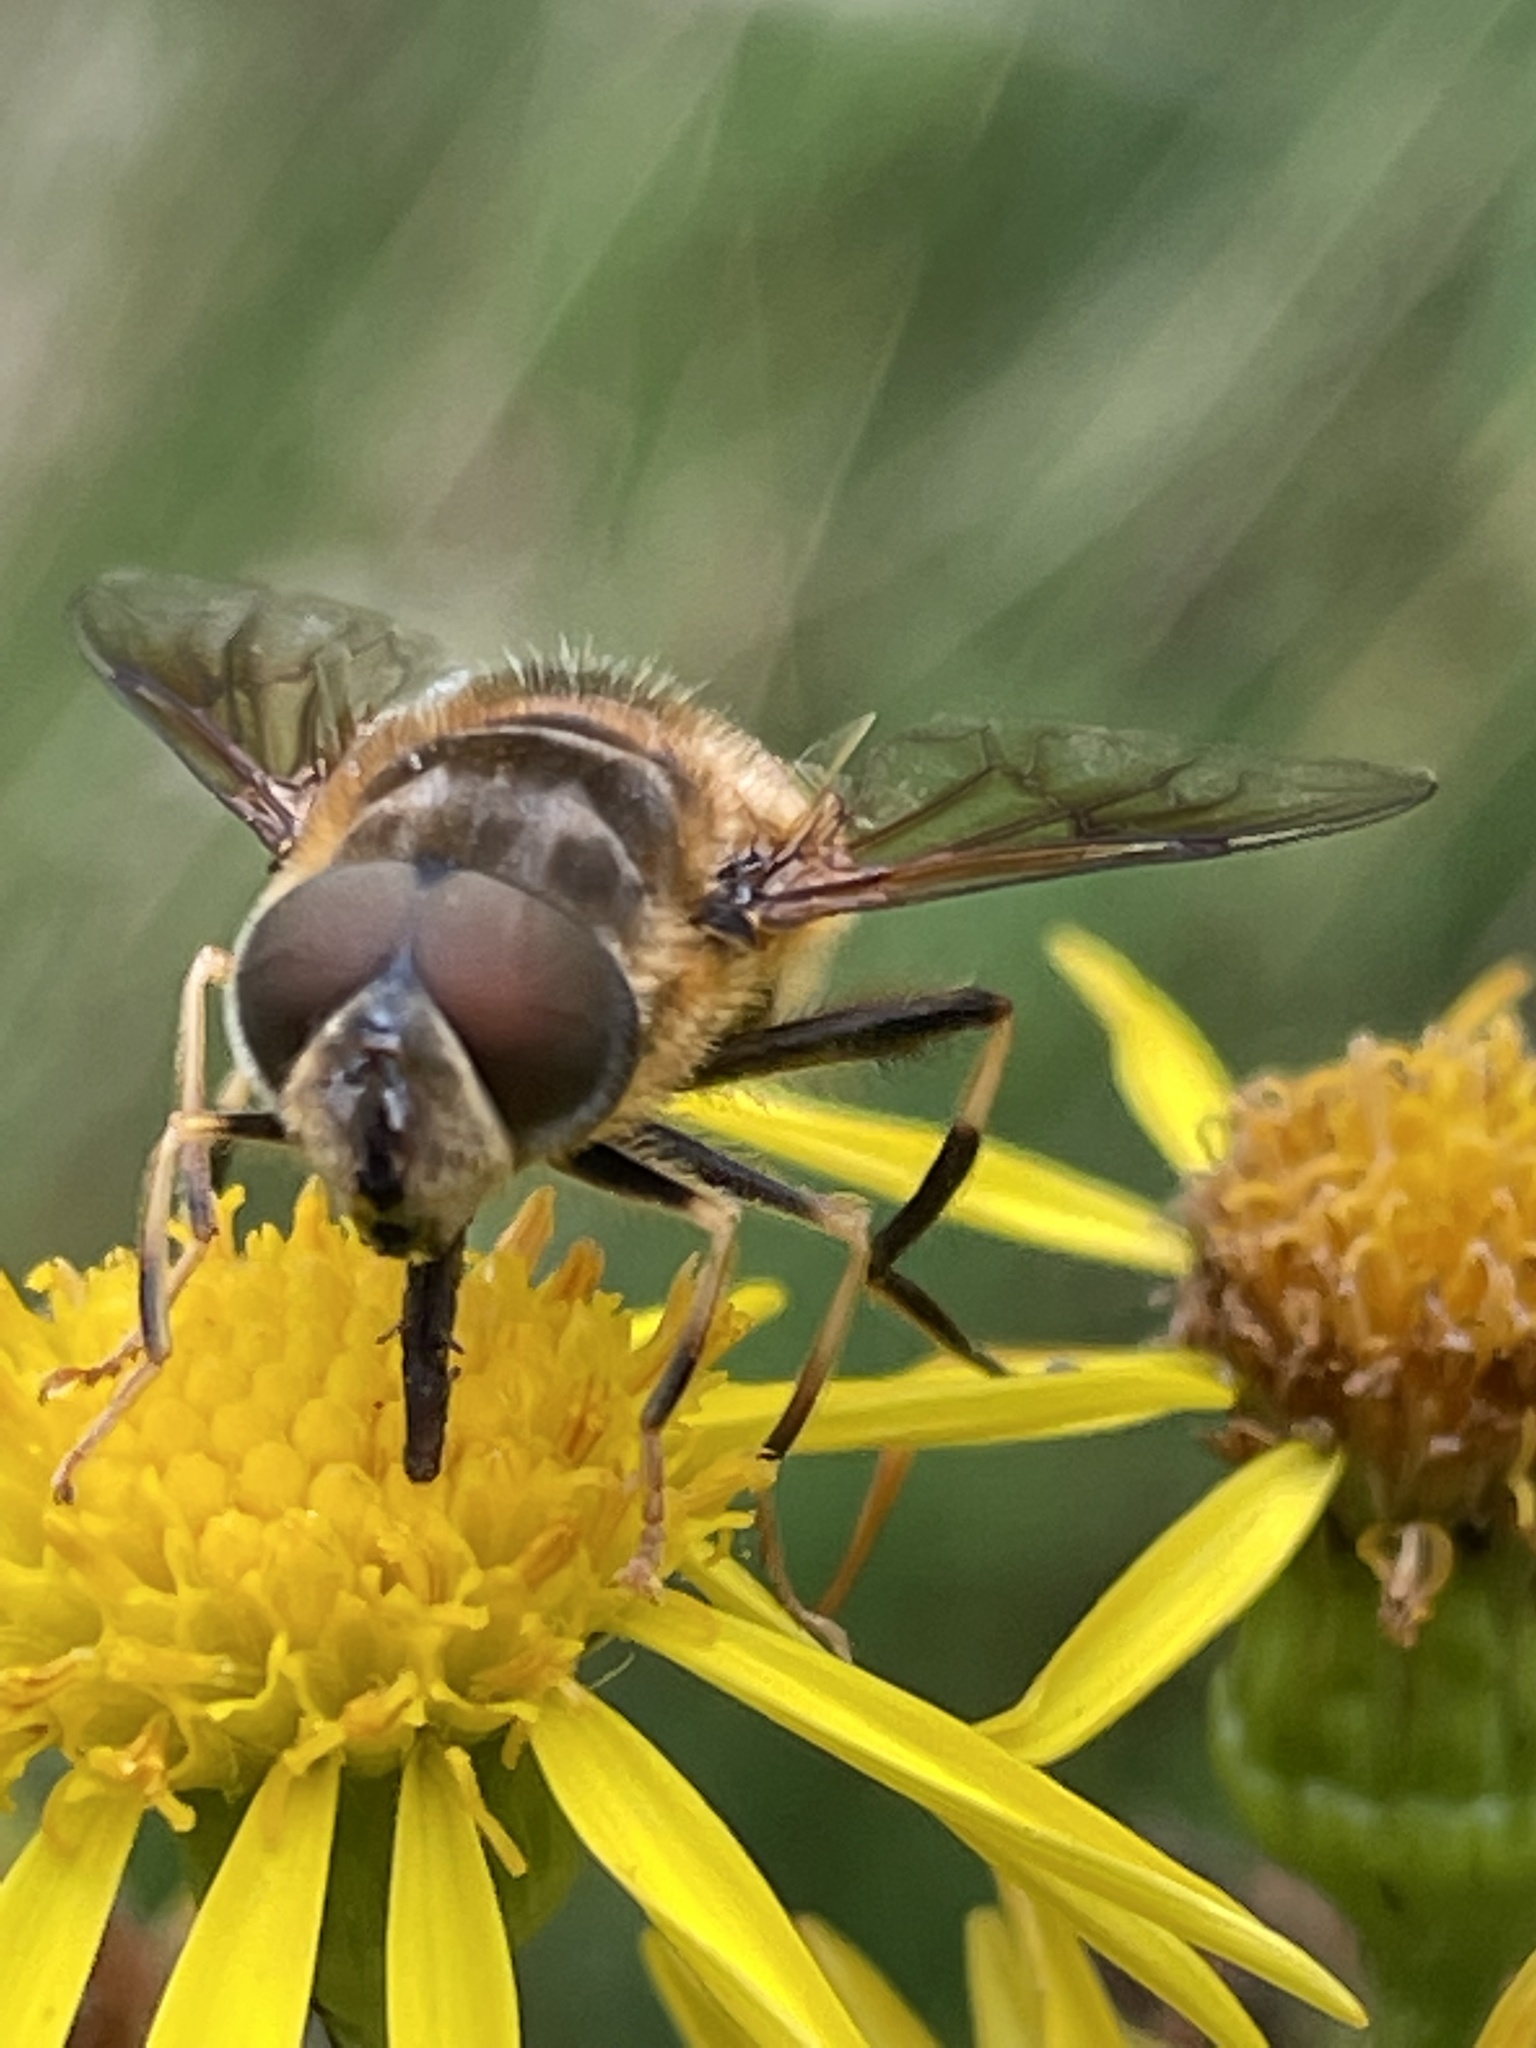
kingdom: Animalia
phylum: Arthropoda
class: Insecta
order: Diptera
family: Syrphidae
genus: Eristalis
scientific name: Eristalis pertinax
